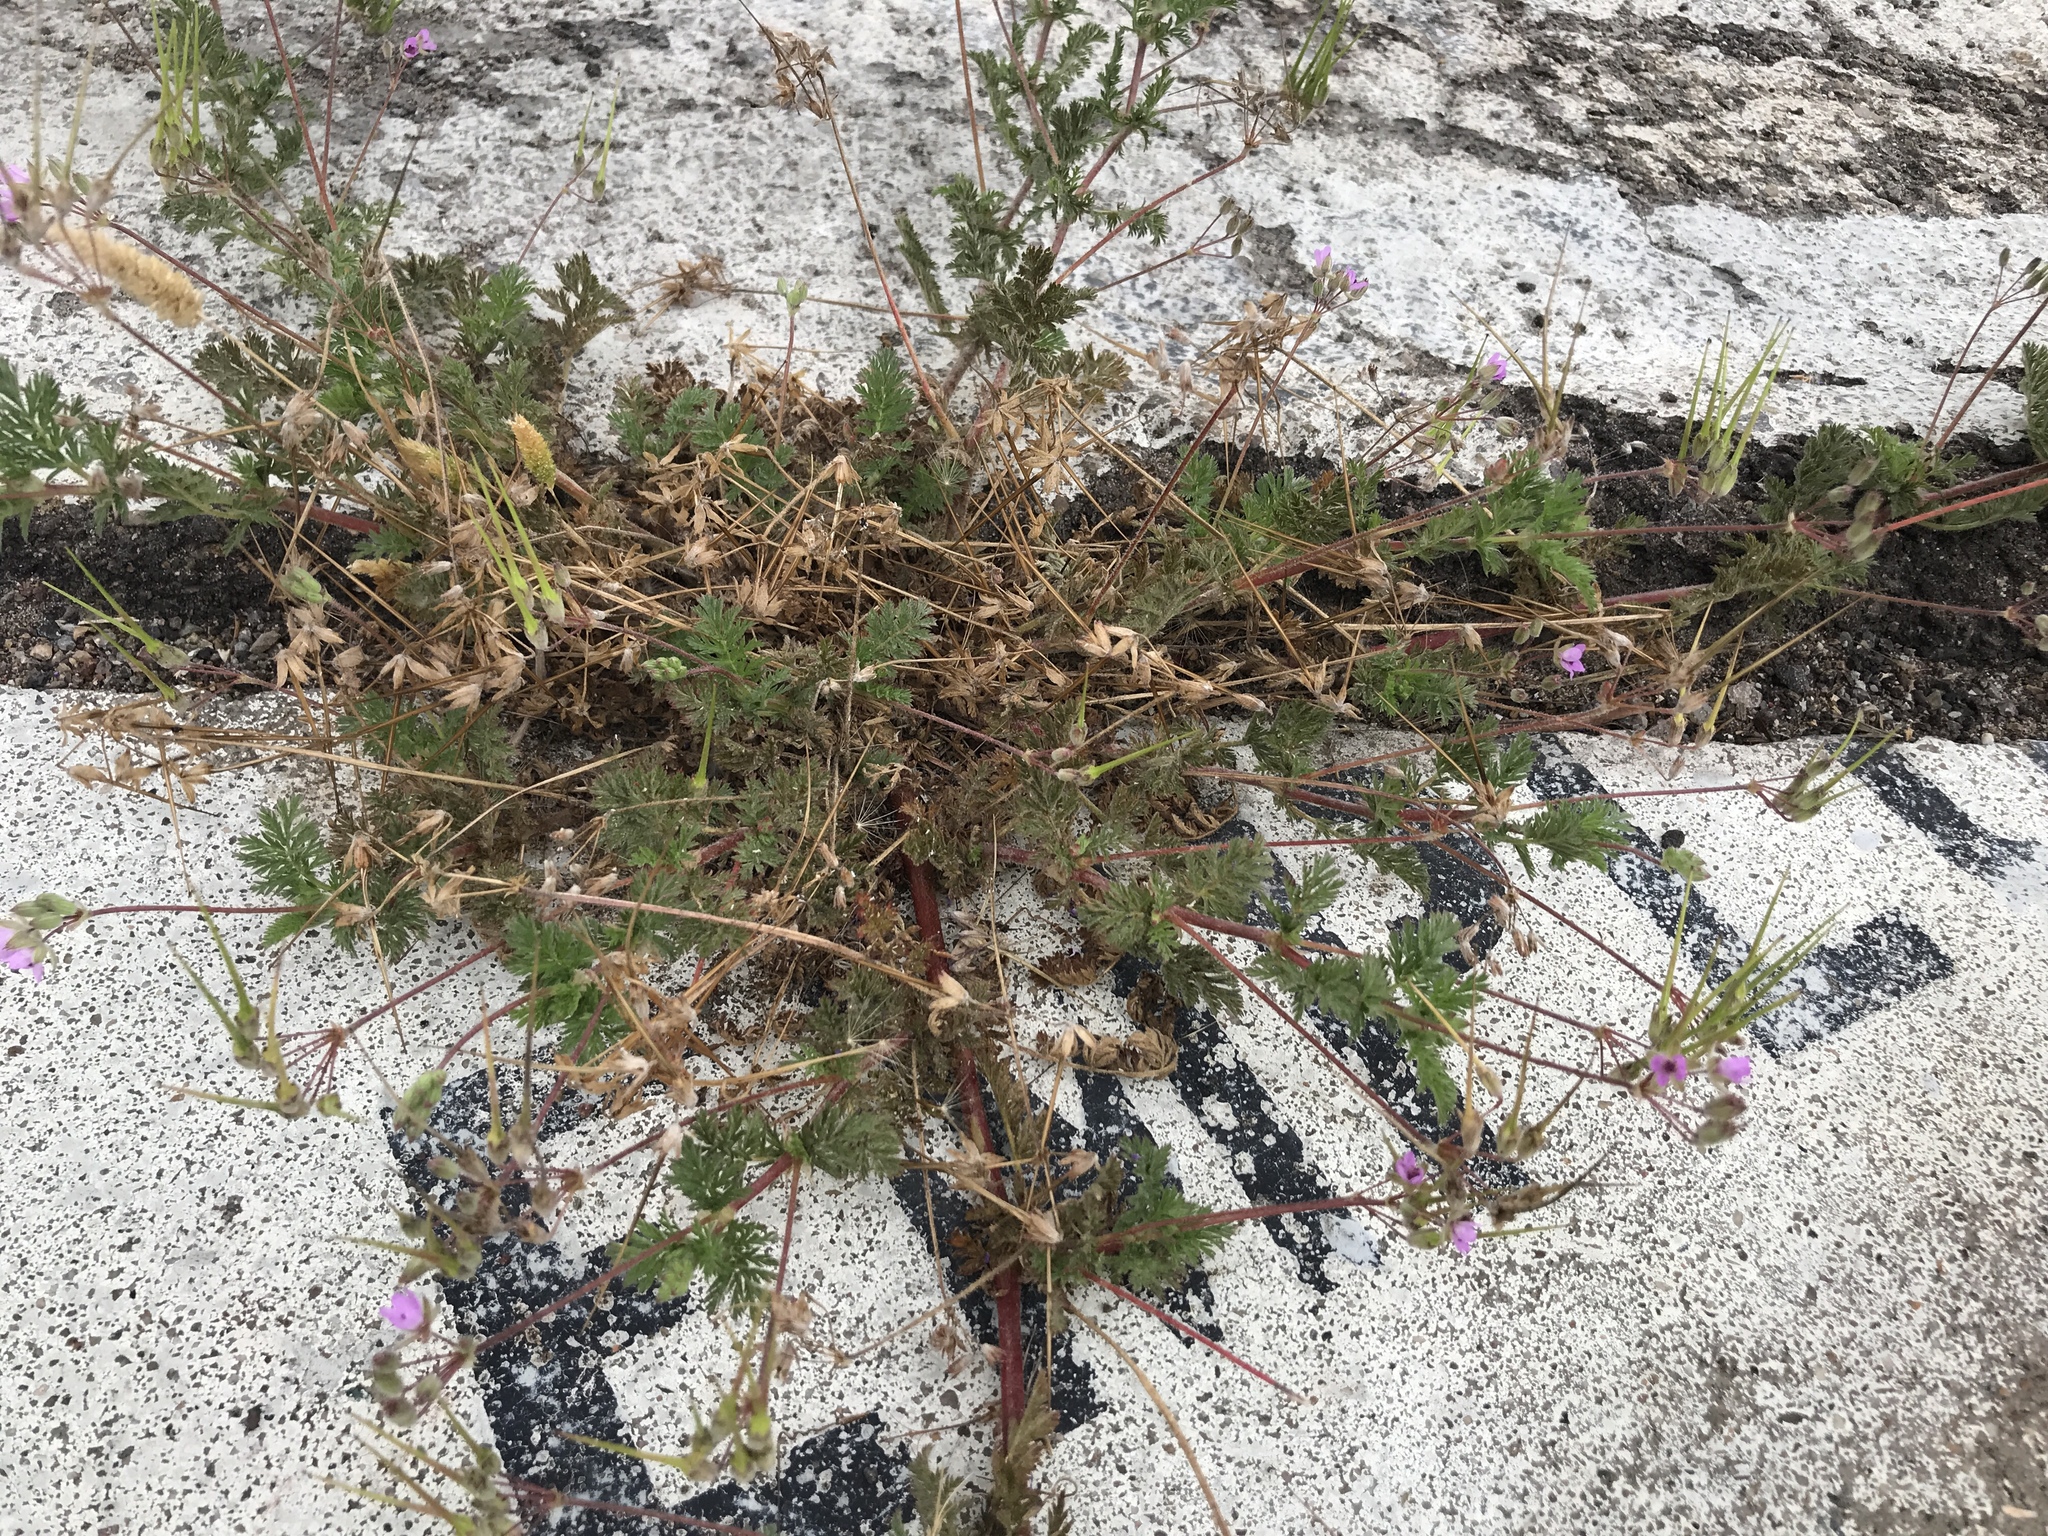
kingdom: Plantae
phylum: Tracheophyta
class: Magnoliopsida
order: Geraniales
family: Geraniaceae
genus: Erodium
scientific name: Erodium cicutarium
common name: Common stork's-bill
